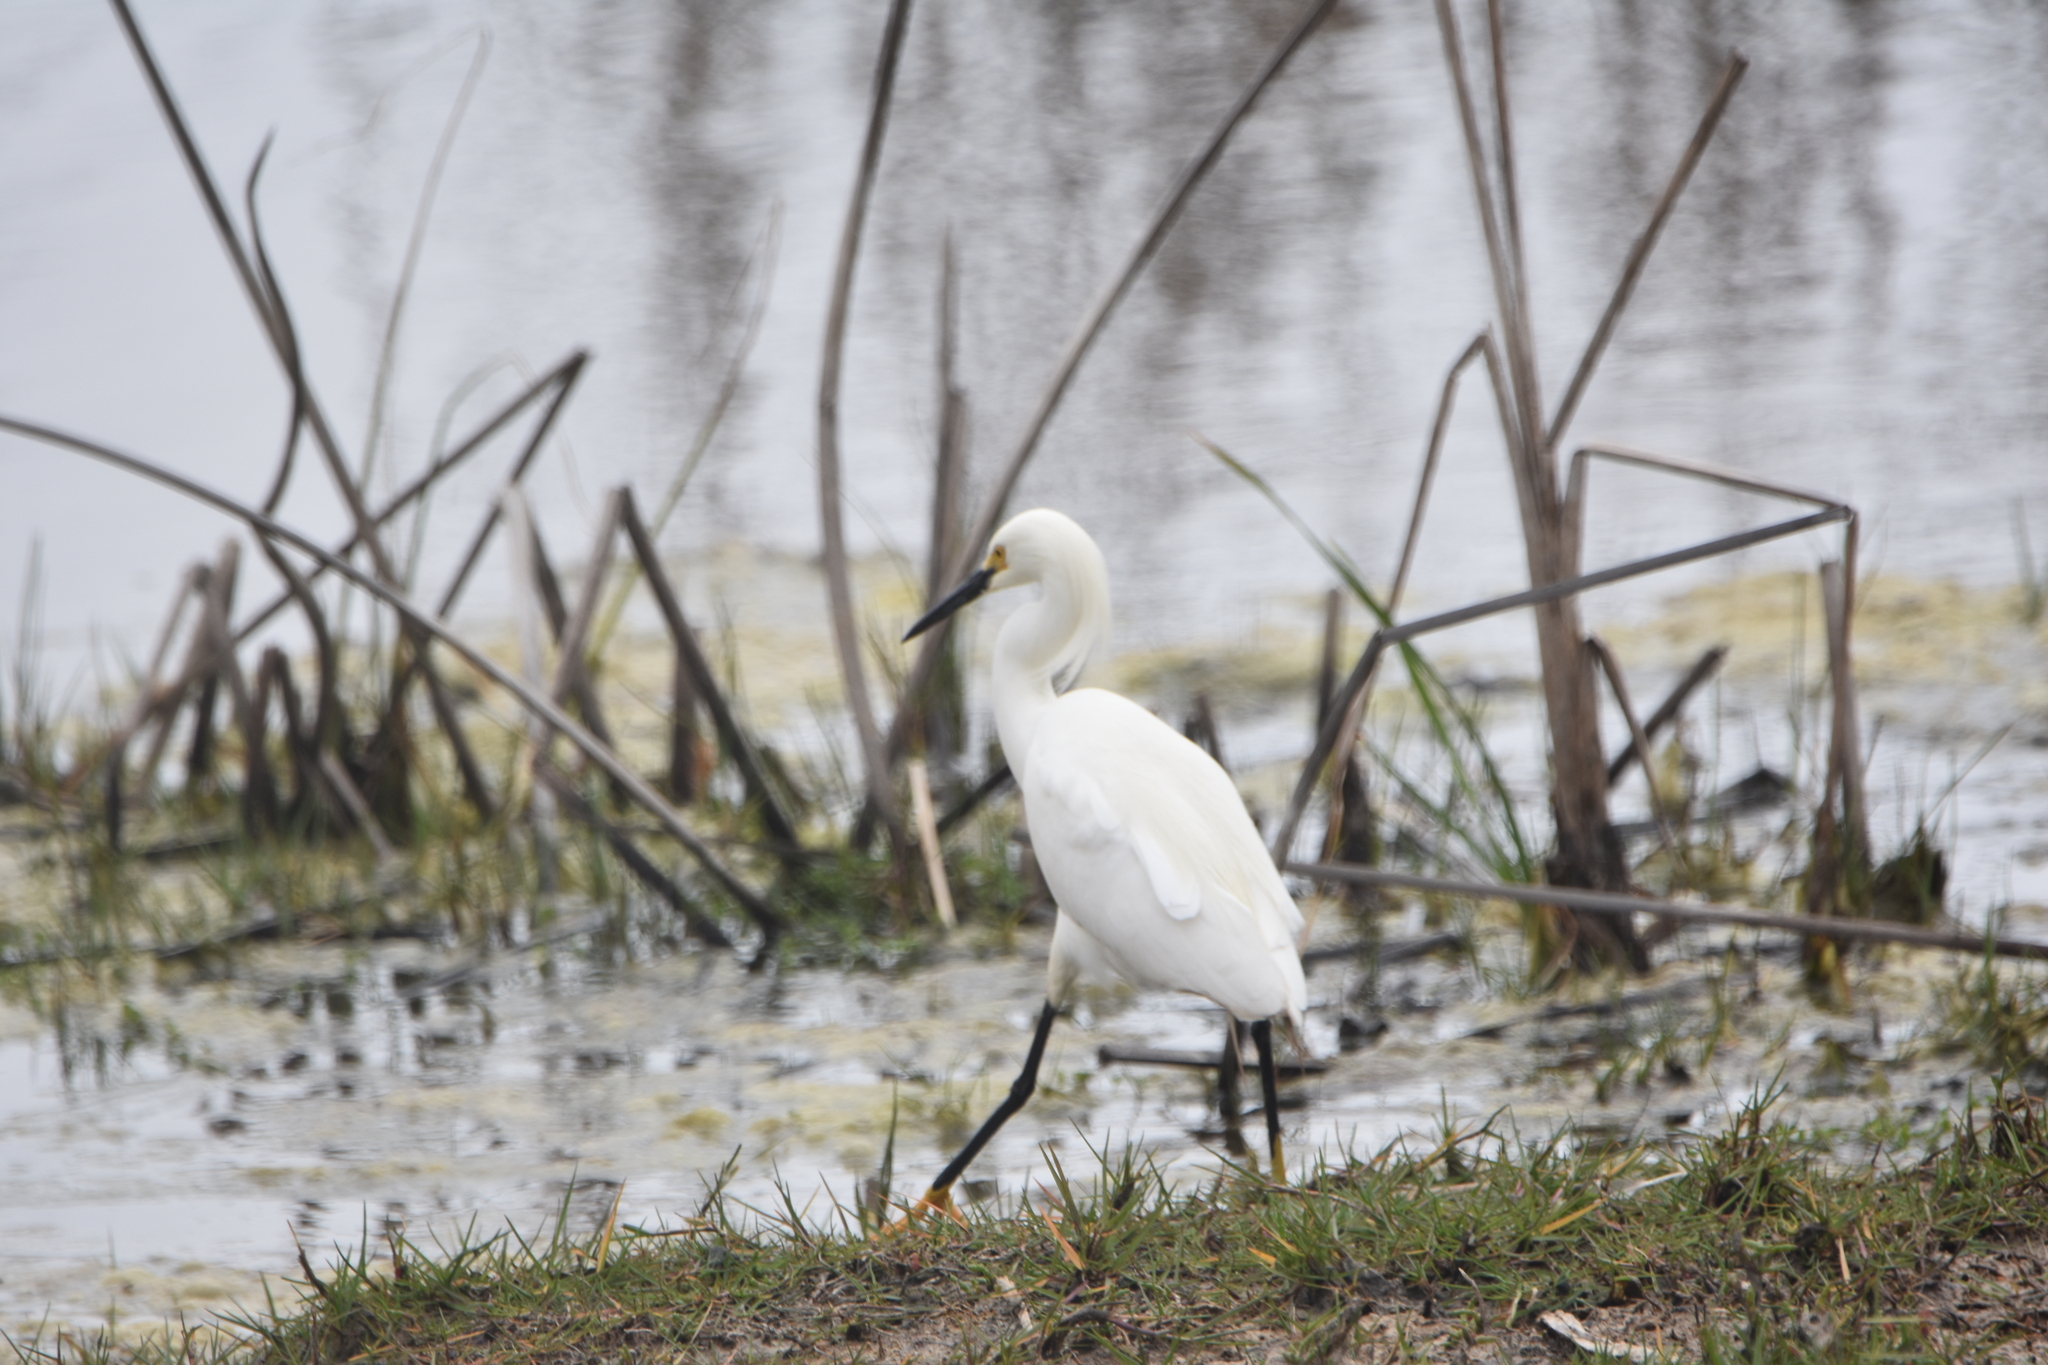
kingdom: Animalia
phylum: Chordata
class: Aves
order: Pelecaniformes
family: Ardeidae
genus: Egretta
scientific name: Egretta thula
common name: Snowy egret
